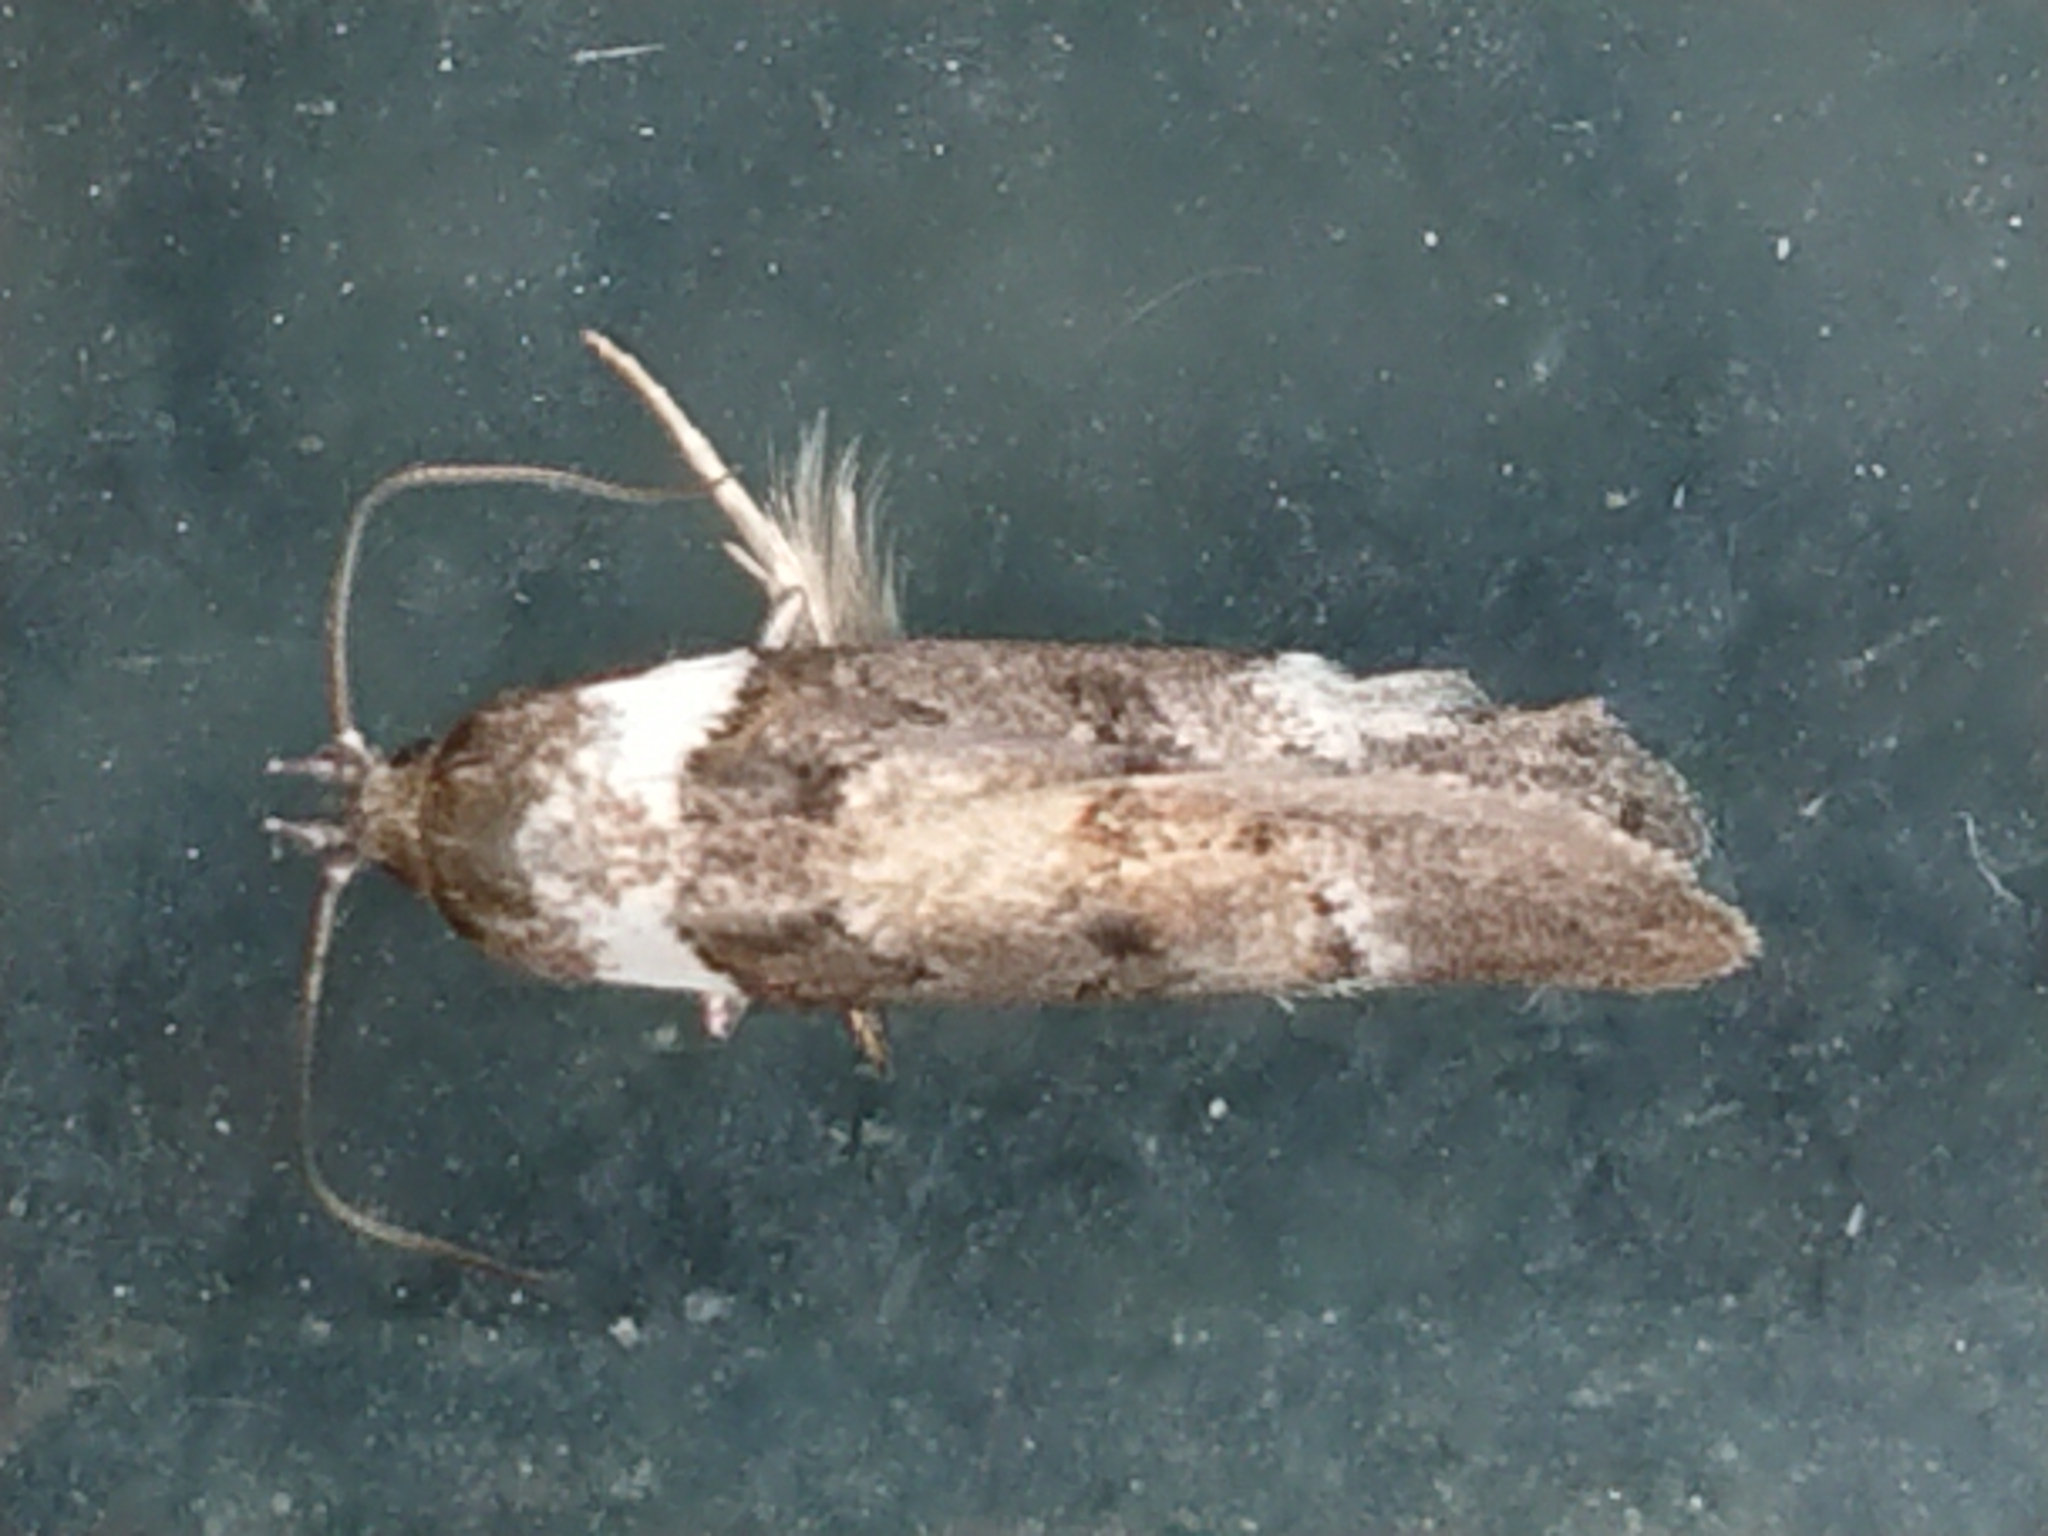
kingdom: Animalia
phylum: Arthropoda
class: Insecta
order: Lepidoptera
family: Oecophoridae
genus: Trachypepla
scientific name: Trachypepla conspicuella
